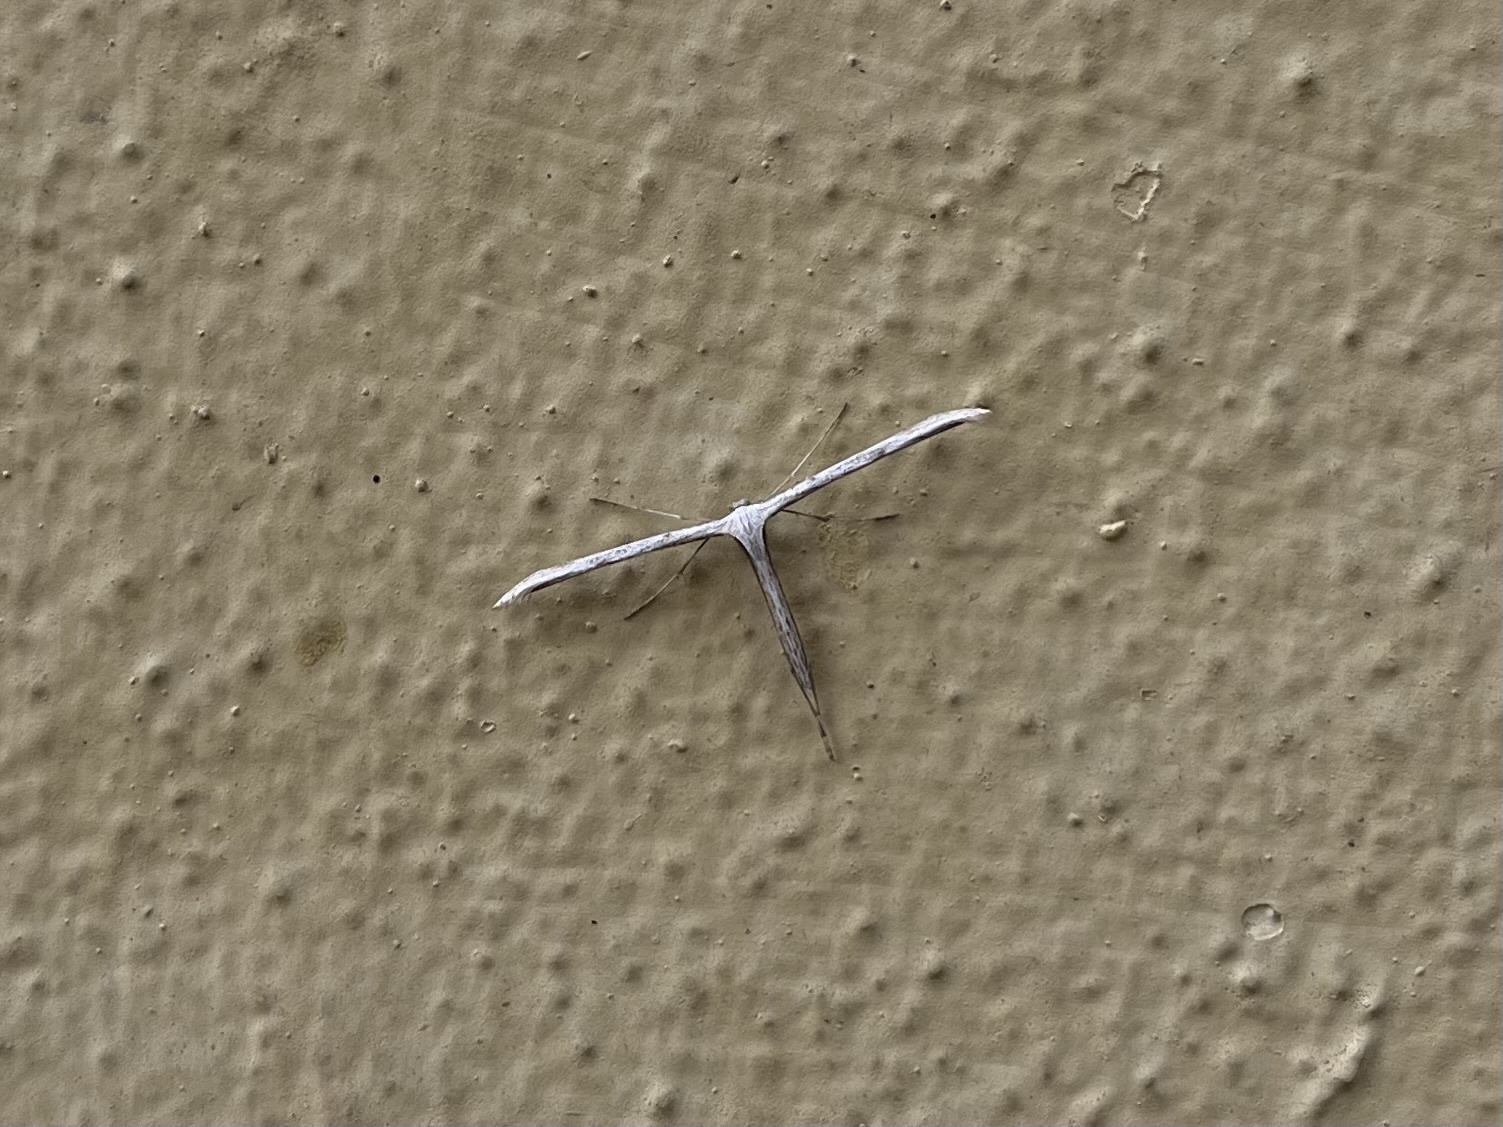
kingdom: Animalia
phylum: Arthropoda
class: Insecta
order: Lepidoptera
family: Pterophoridae
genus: Emmelina
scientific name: Emmelina monodactyla
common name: Common plume
